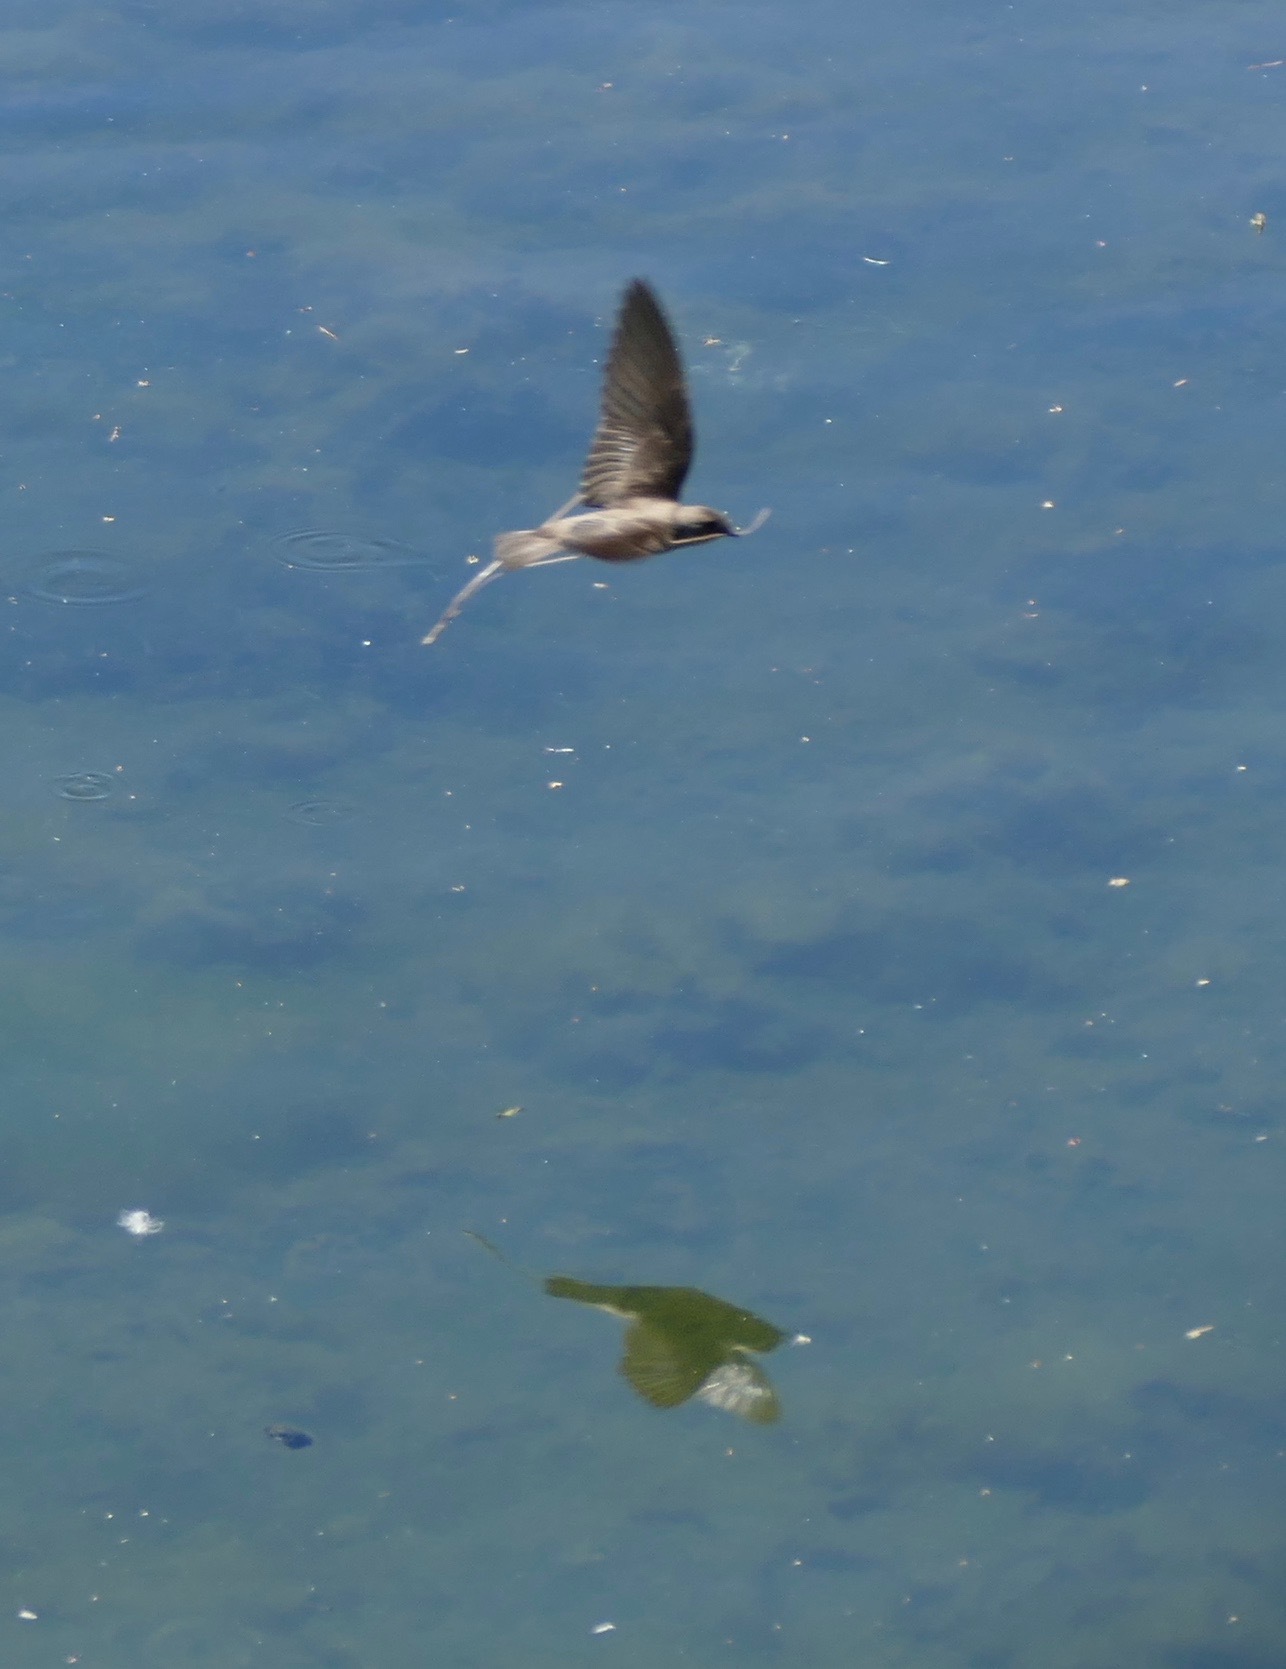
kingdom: Animalia
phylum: Chordata
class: Aves
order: Passeriformes
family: Hirundinidae
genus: Stelgidopteryx
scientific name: Stelgidopteryx serripennis
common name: Northern rough-winged swallow
